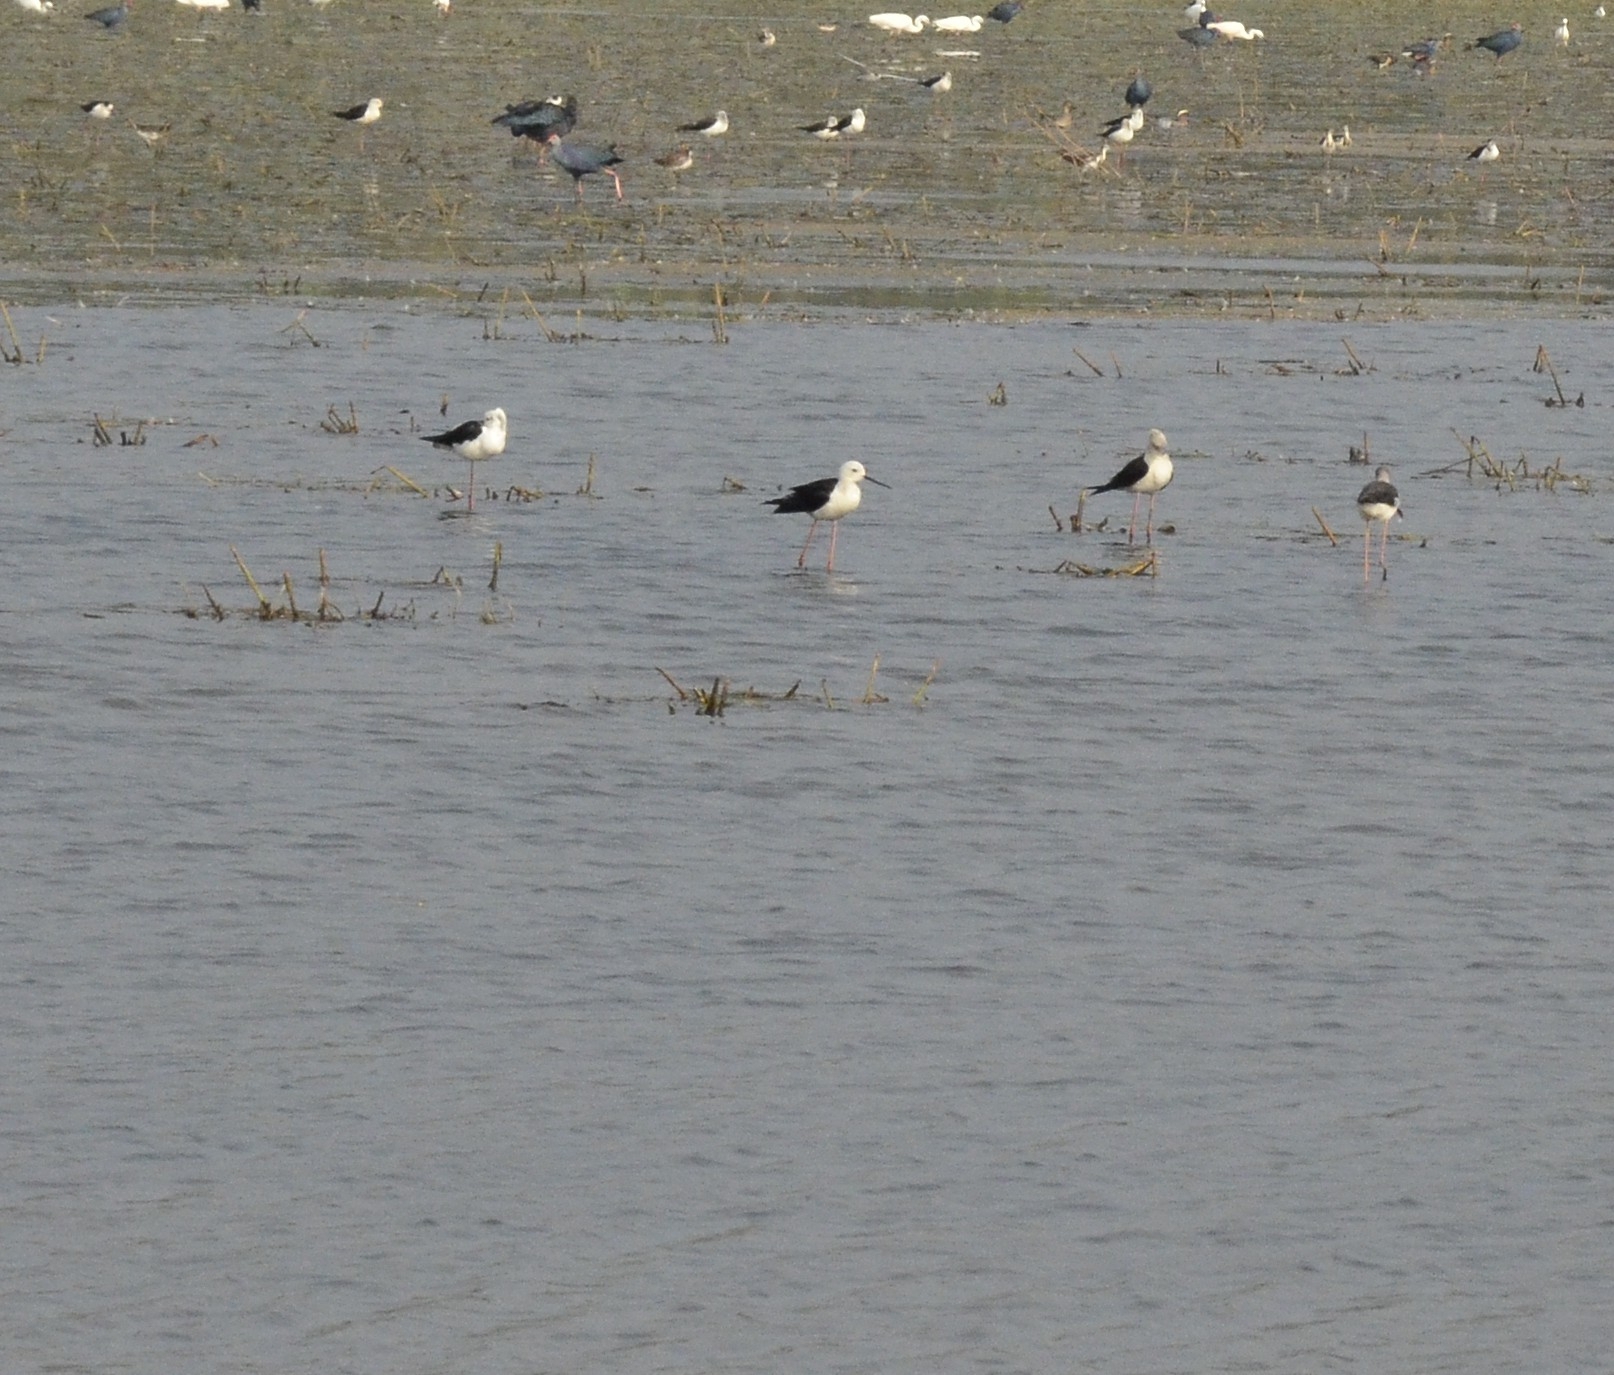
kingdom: Animalia
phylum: Chordata
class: Aves
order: Charadriiformes
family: Recurvirostridae
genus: Himantopus
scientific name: Himantopus himantopus
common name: Black-winged stilt
